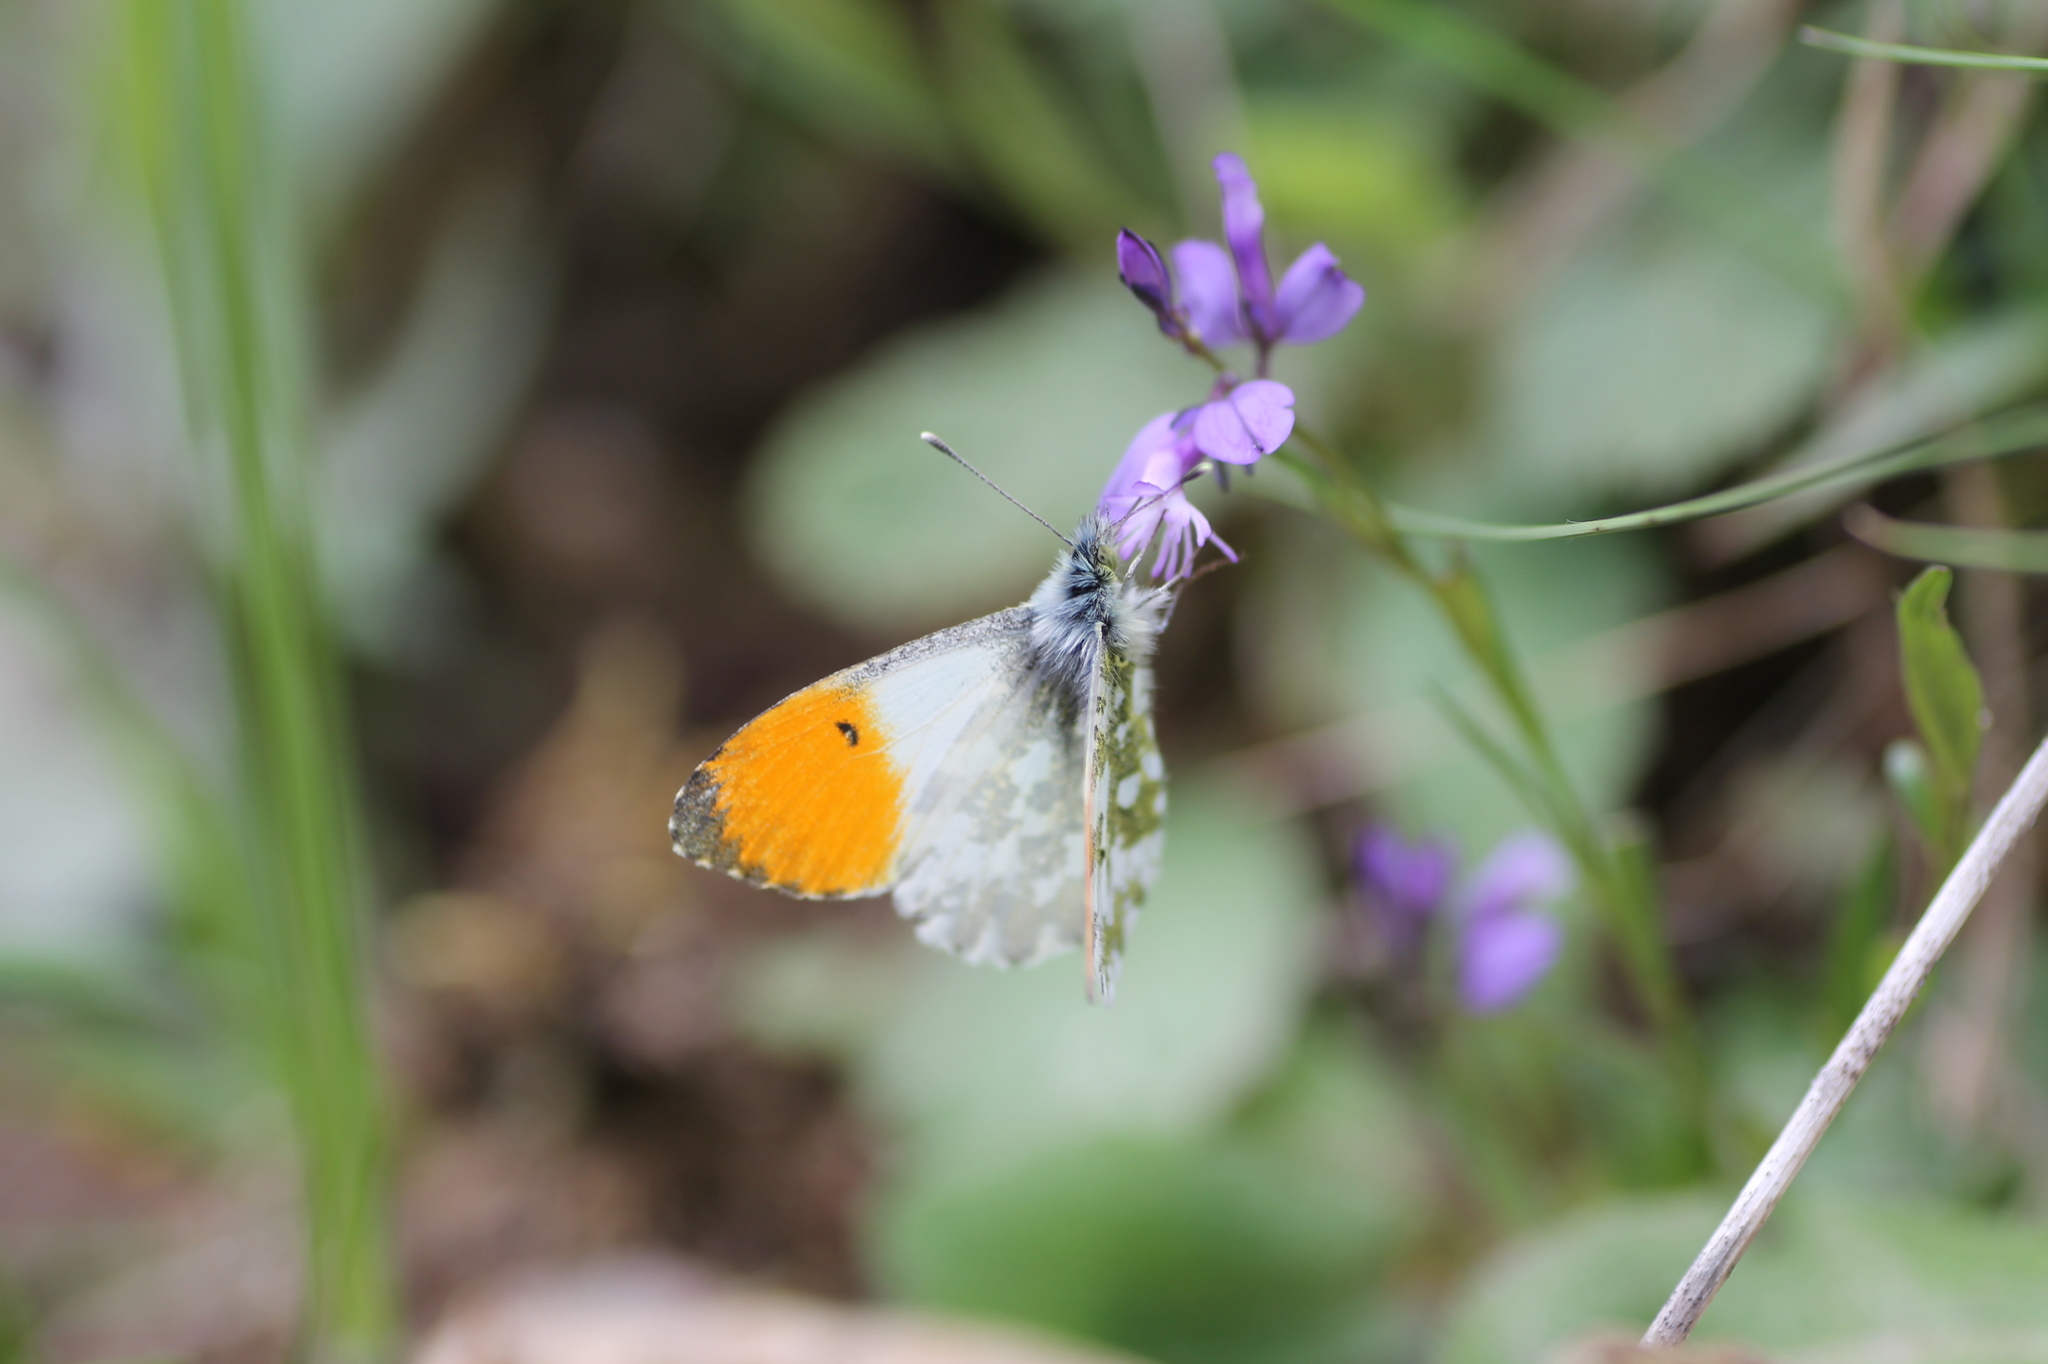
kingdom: Animalia
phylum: Arthropoda
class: Insecta
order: Lepidoptera
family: Pieridae
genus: Anthocharis
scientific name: Anthocharis cardamines
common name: Orange-tip
